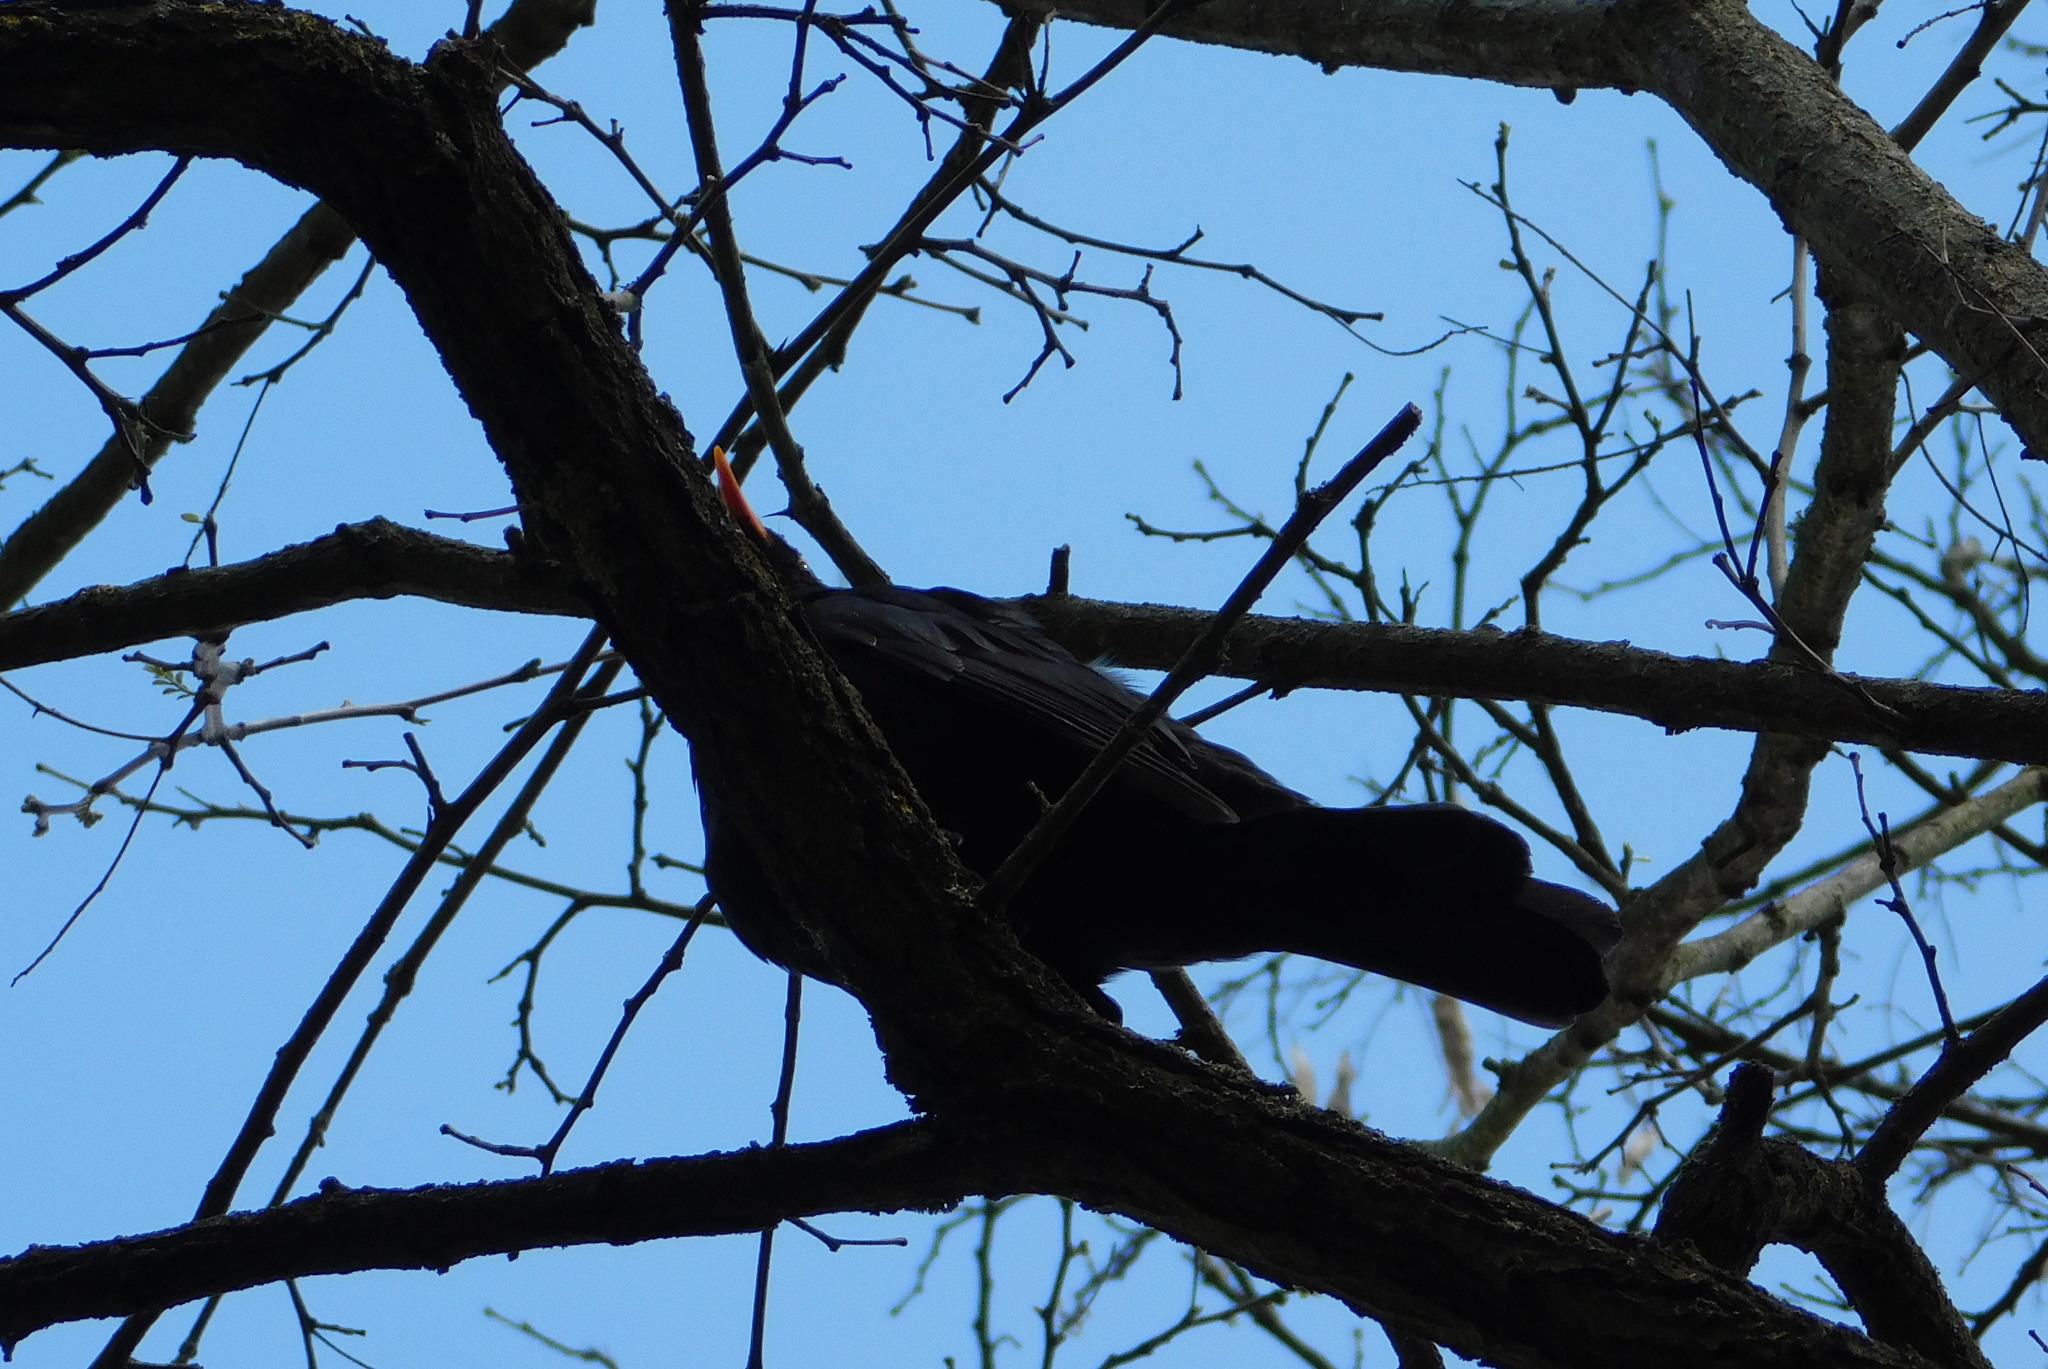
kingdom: Animalia
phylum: Chordata
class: Aves
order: Passeriformes
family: Turdidae
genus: Turdus
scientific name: Turdus merula
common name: Common blackbird
